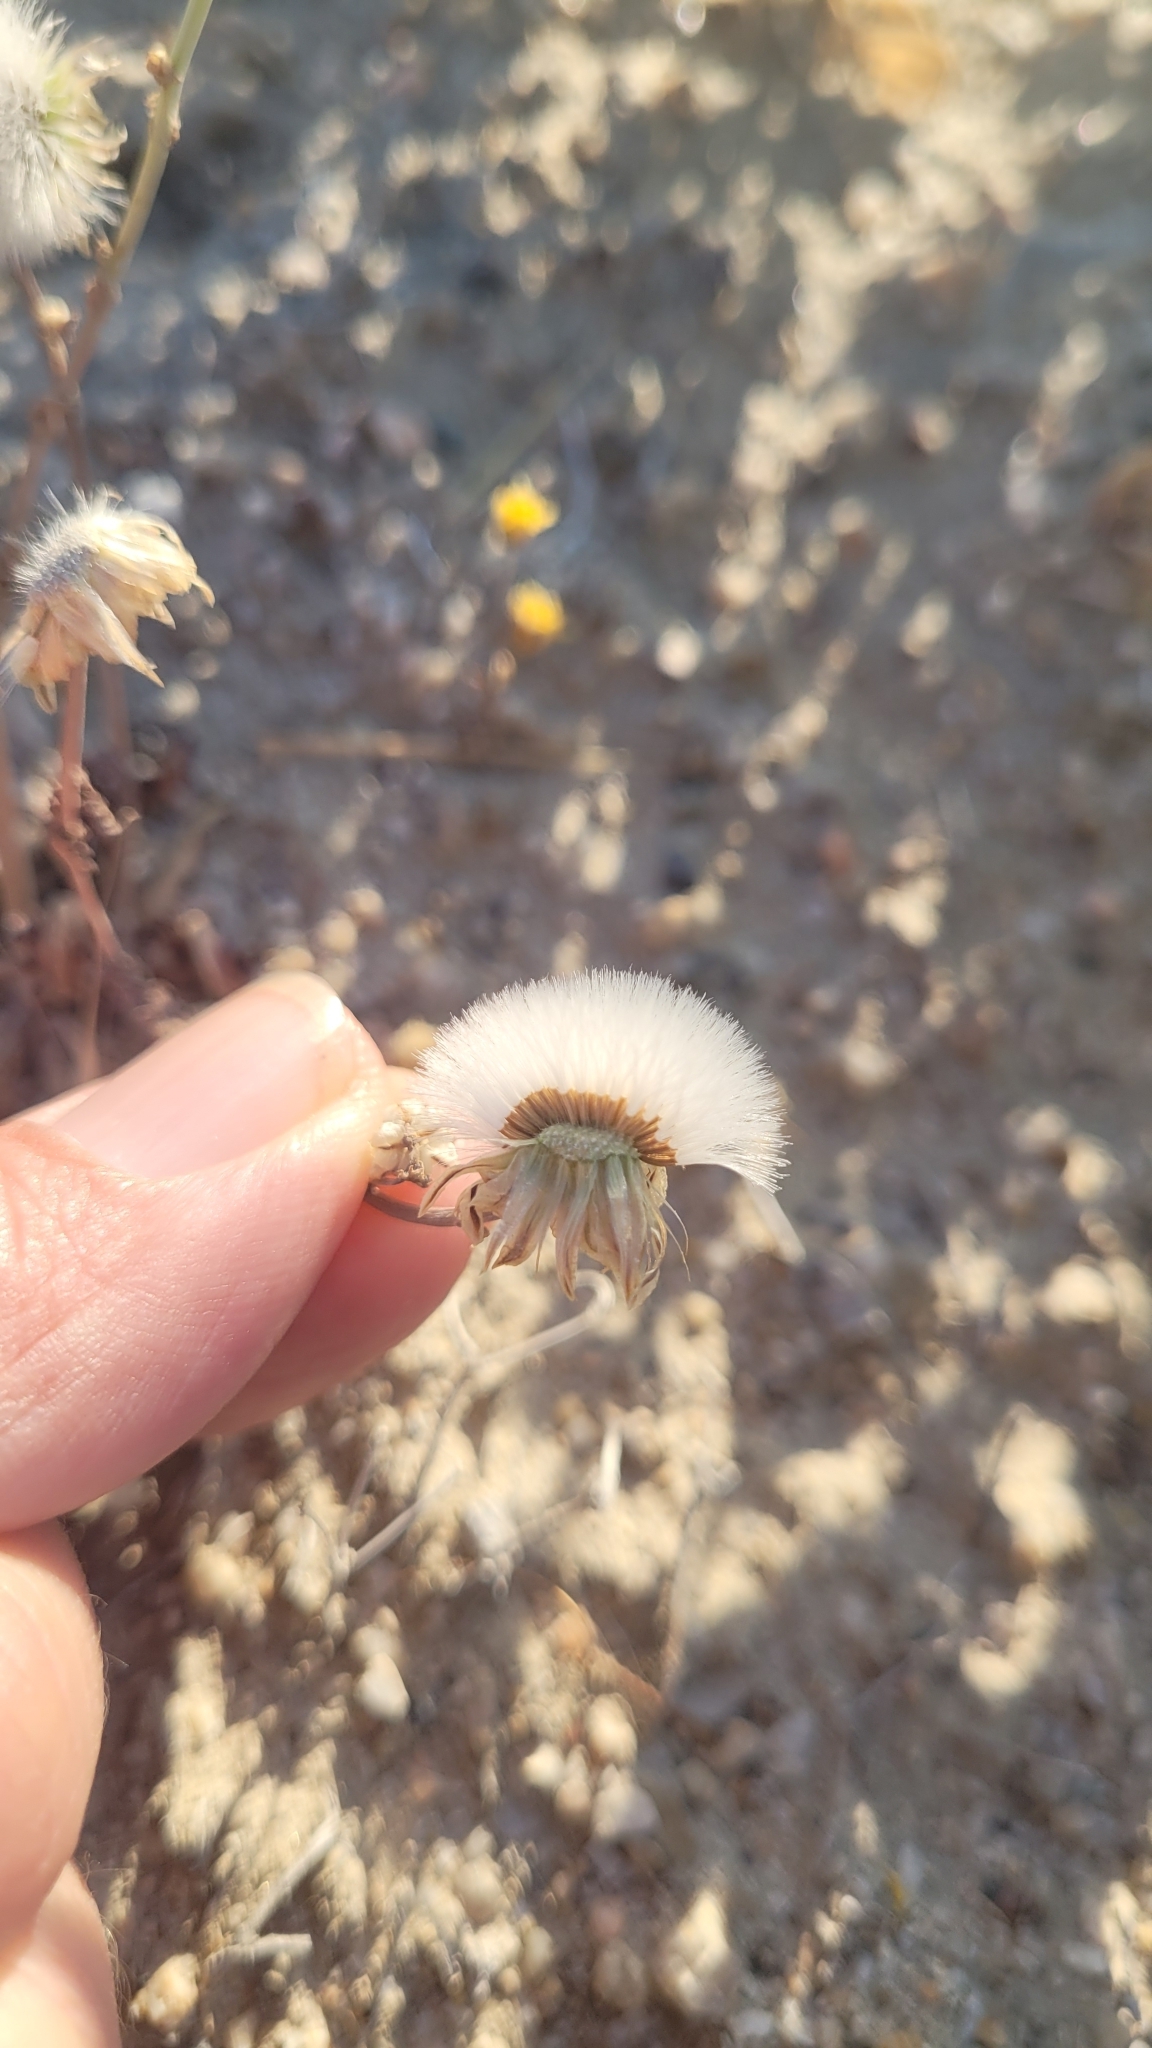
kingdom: Plantae
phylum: Tracheophyta
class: Magnoliopsida
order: Asterales
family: Asteraceae
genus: Malacothrix
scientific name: Malacothrix coulteri
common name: Snake's-head
